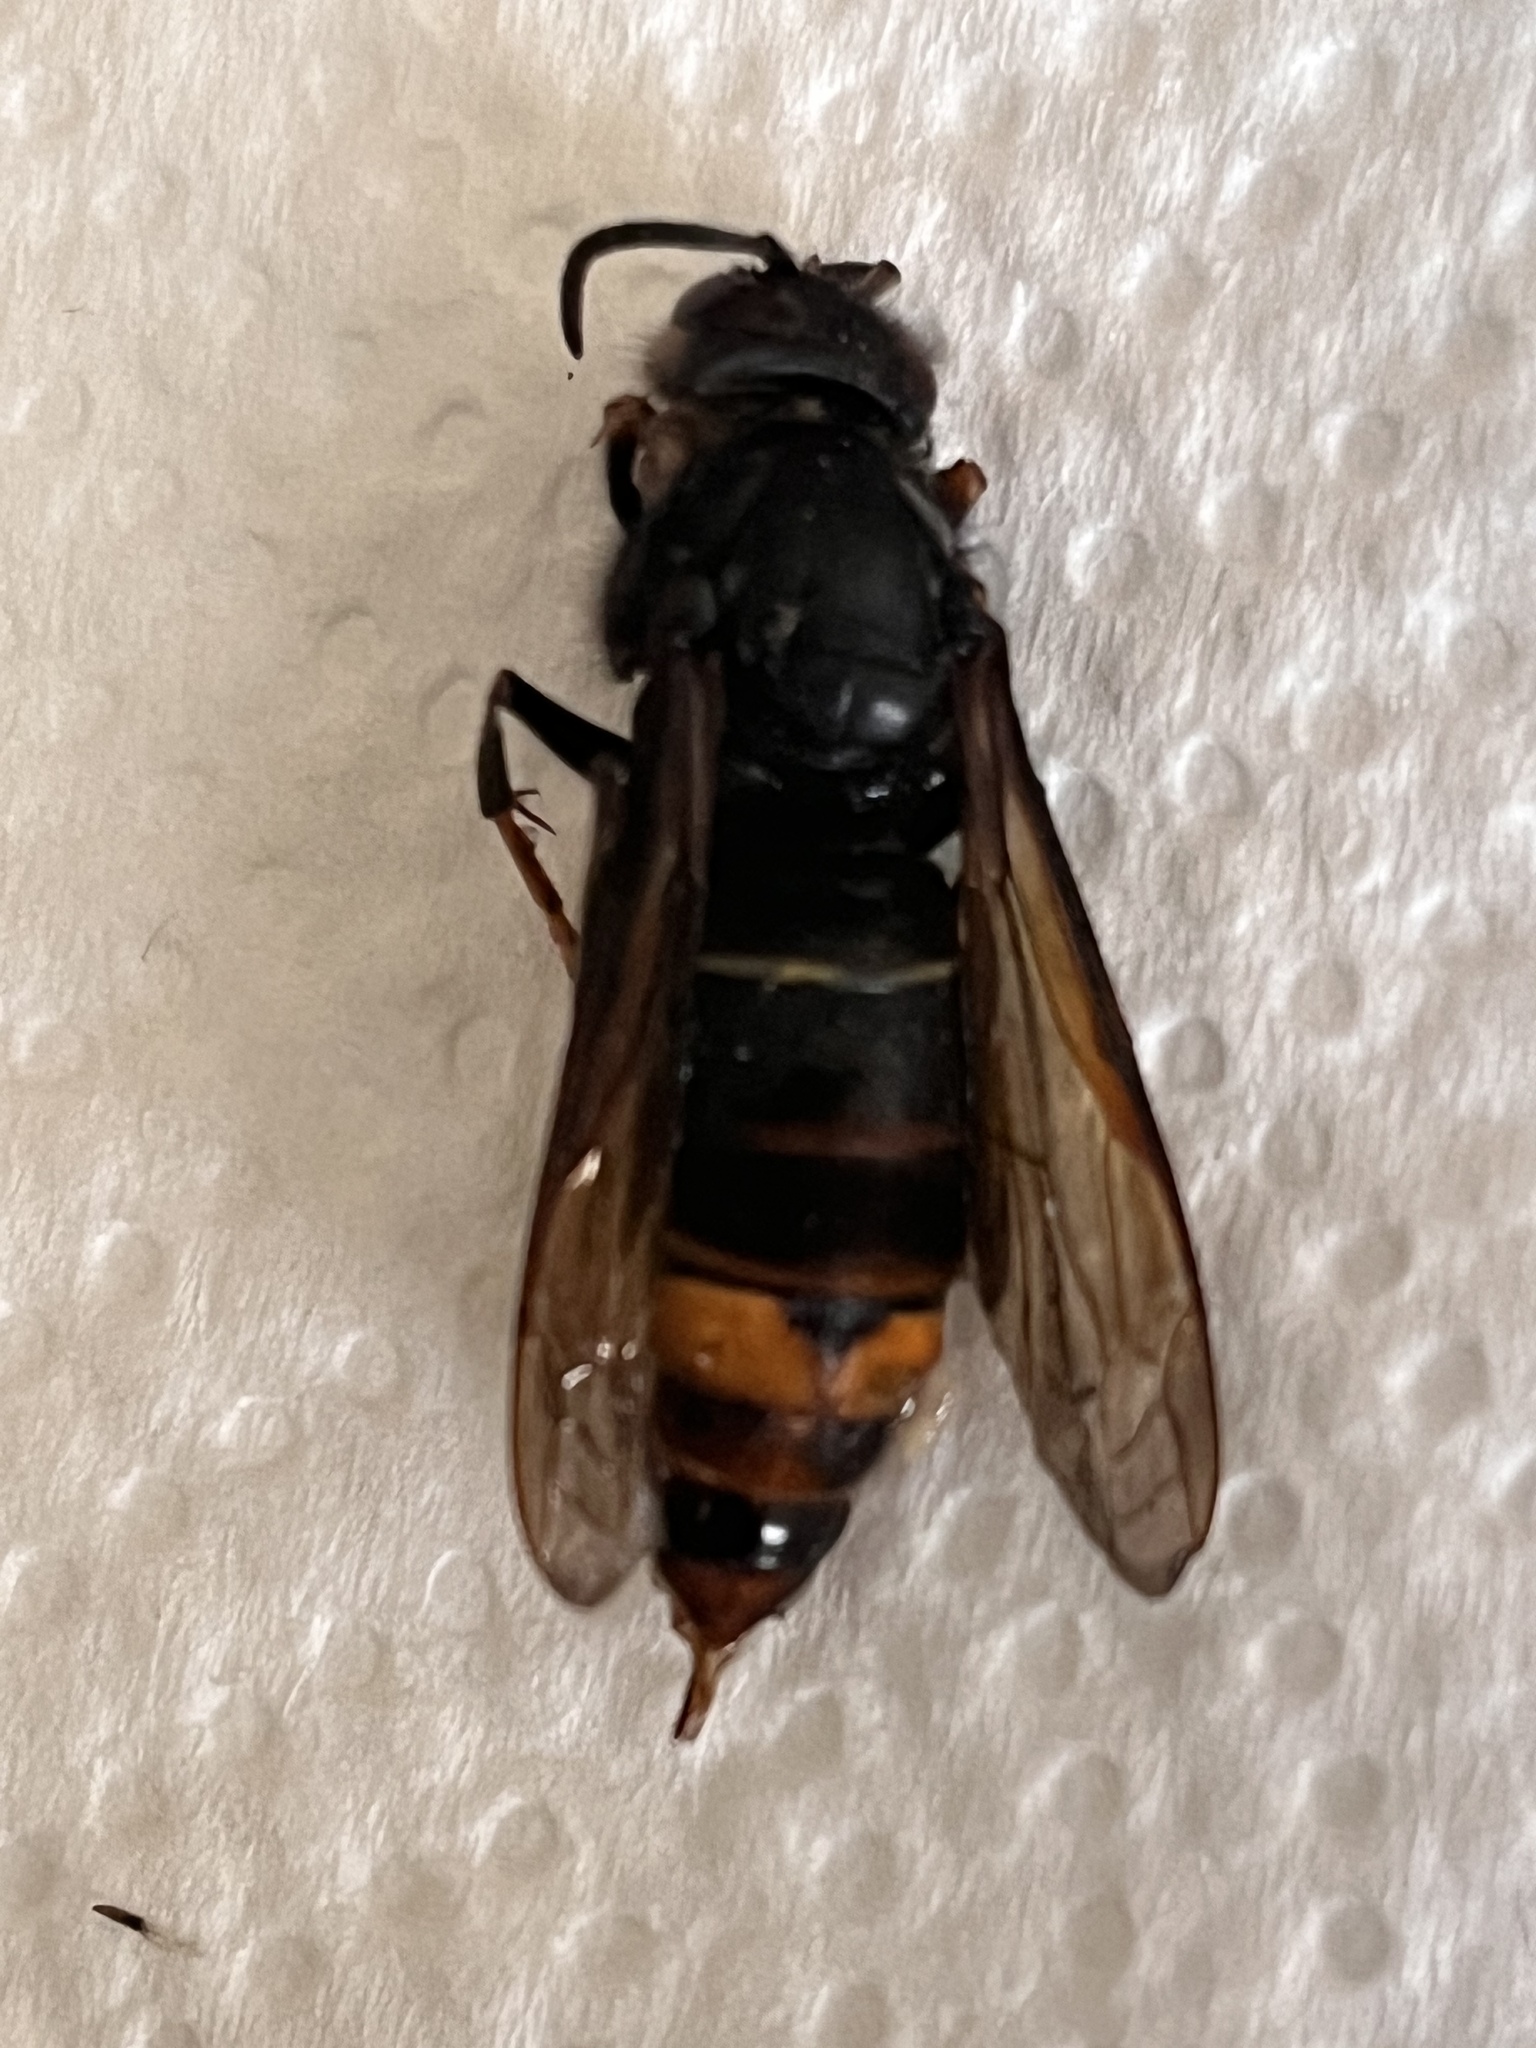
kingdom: Animalia
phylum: Arthropoda
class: Insecta
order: Hymenoptera
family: Vespidae
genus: Vespa
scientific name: Vespa velutina
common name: Asian hornet
